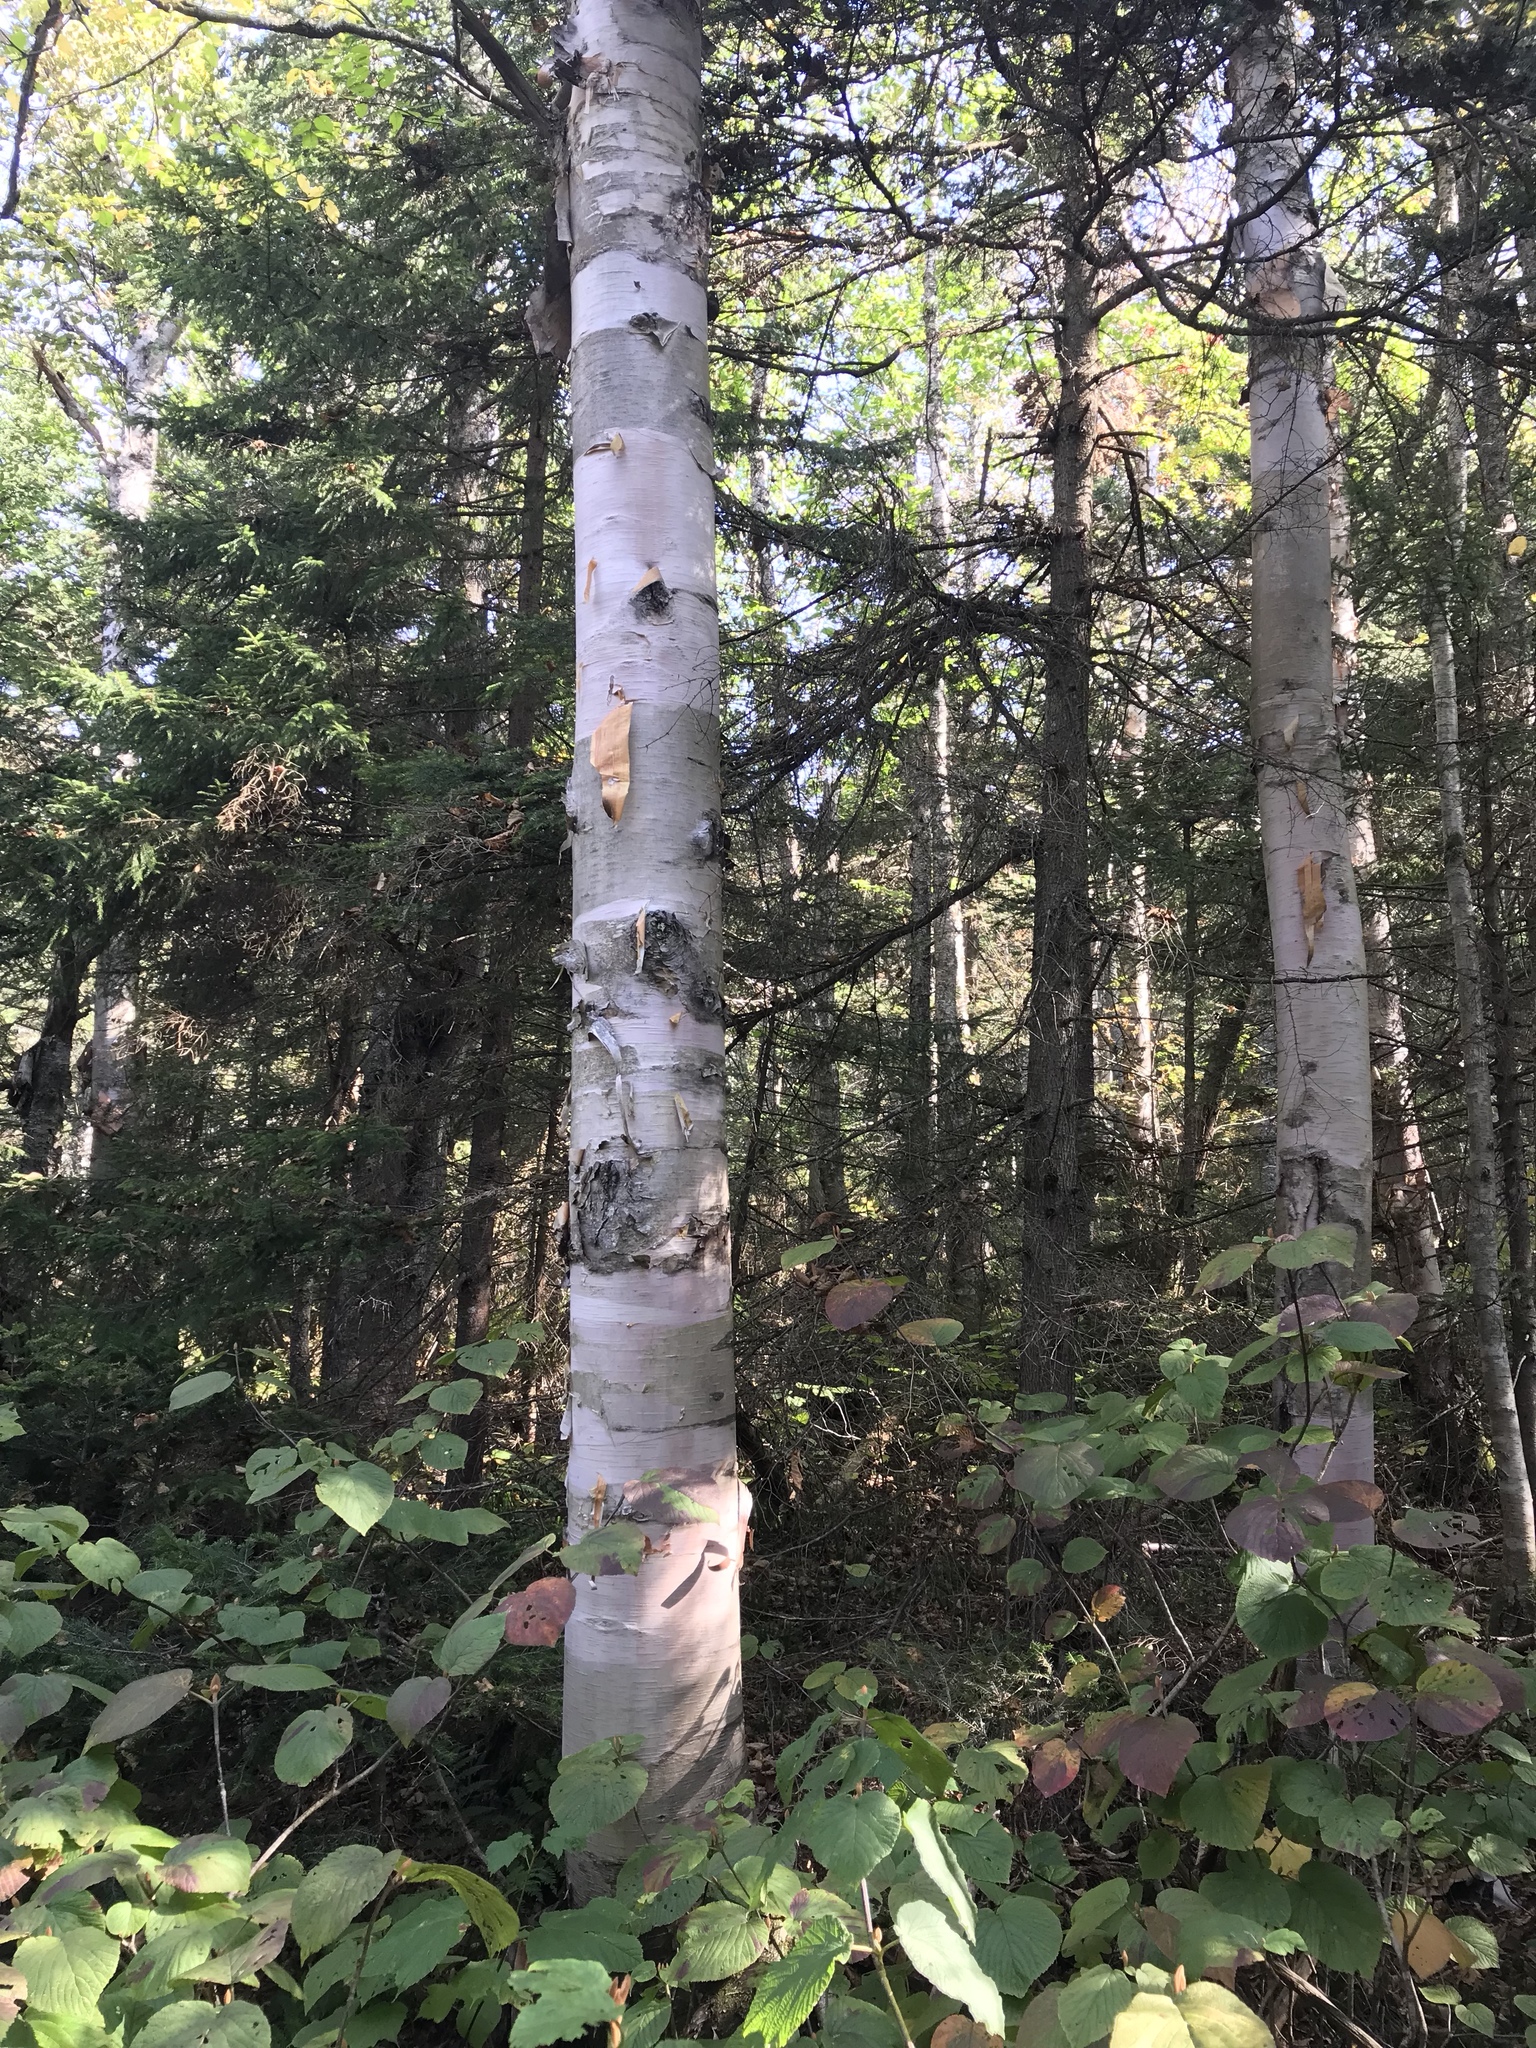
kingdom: Plantae
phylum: Tracheophyta
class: Magnoliopsida
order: Fagales
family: Betulaceae
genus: Betula
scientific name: Betula cordifolia
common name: Mountain white birch
